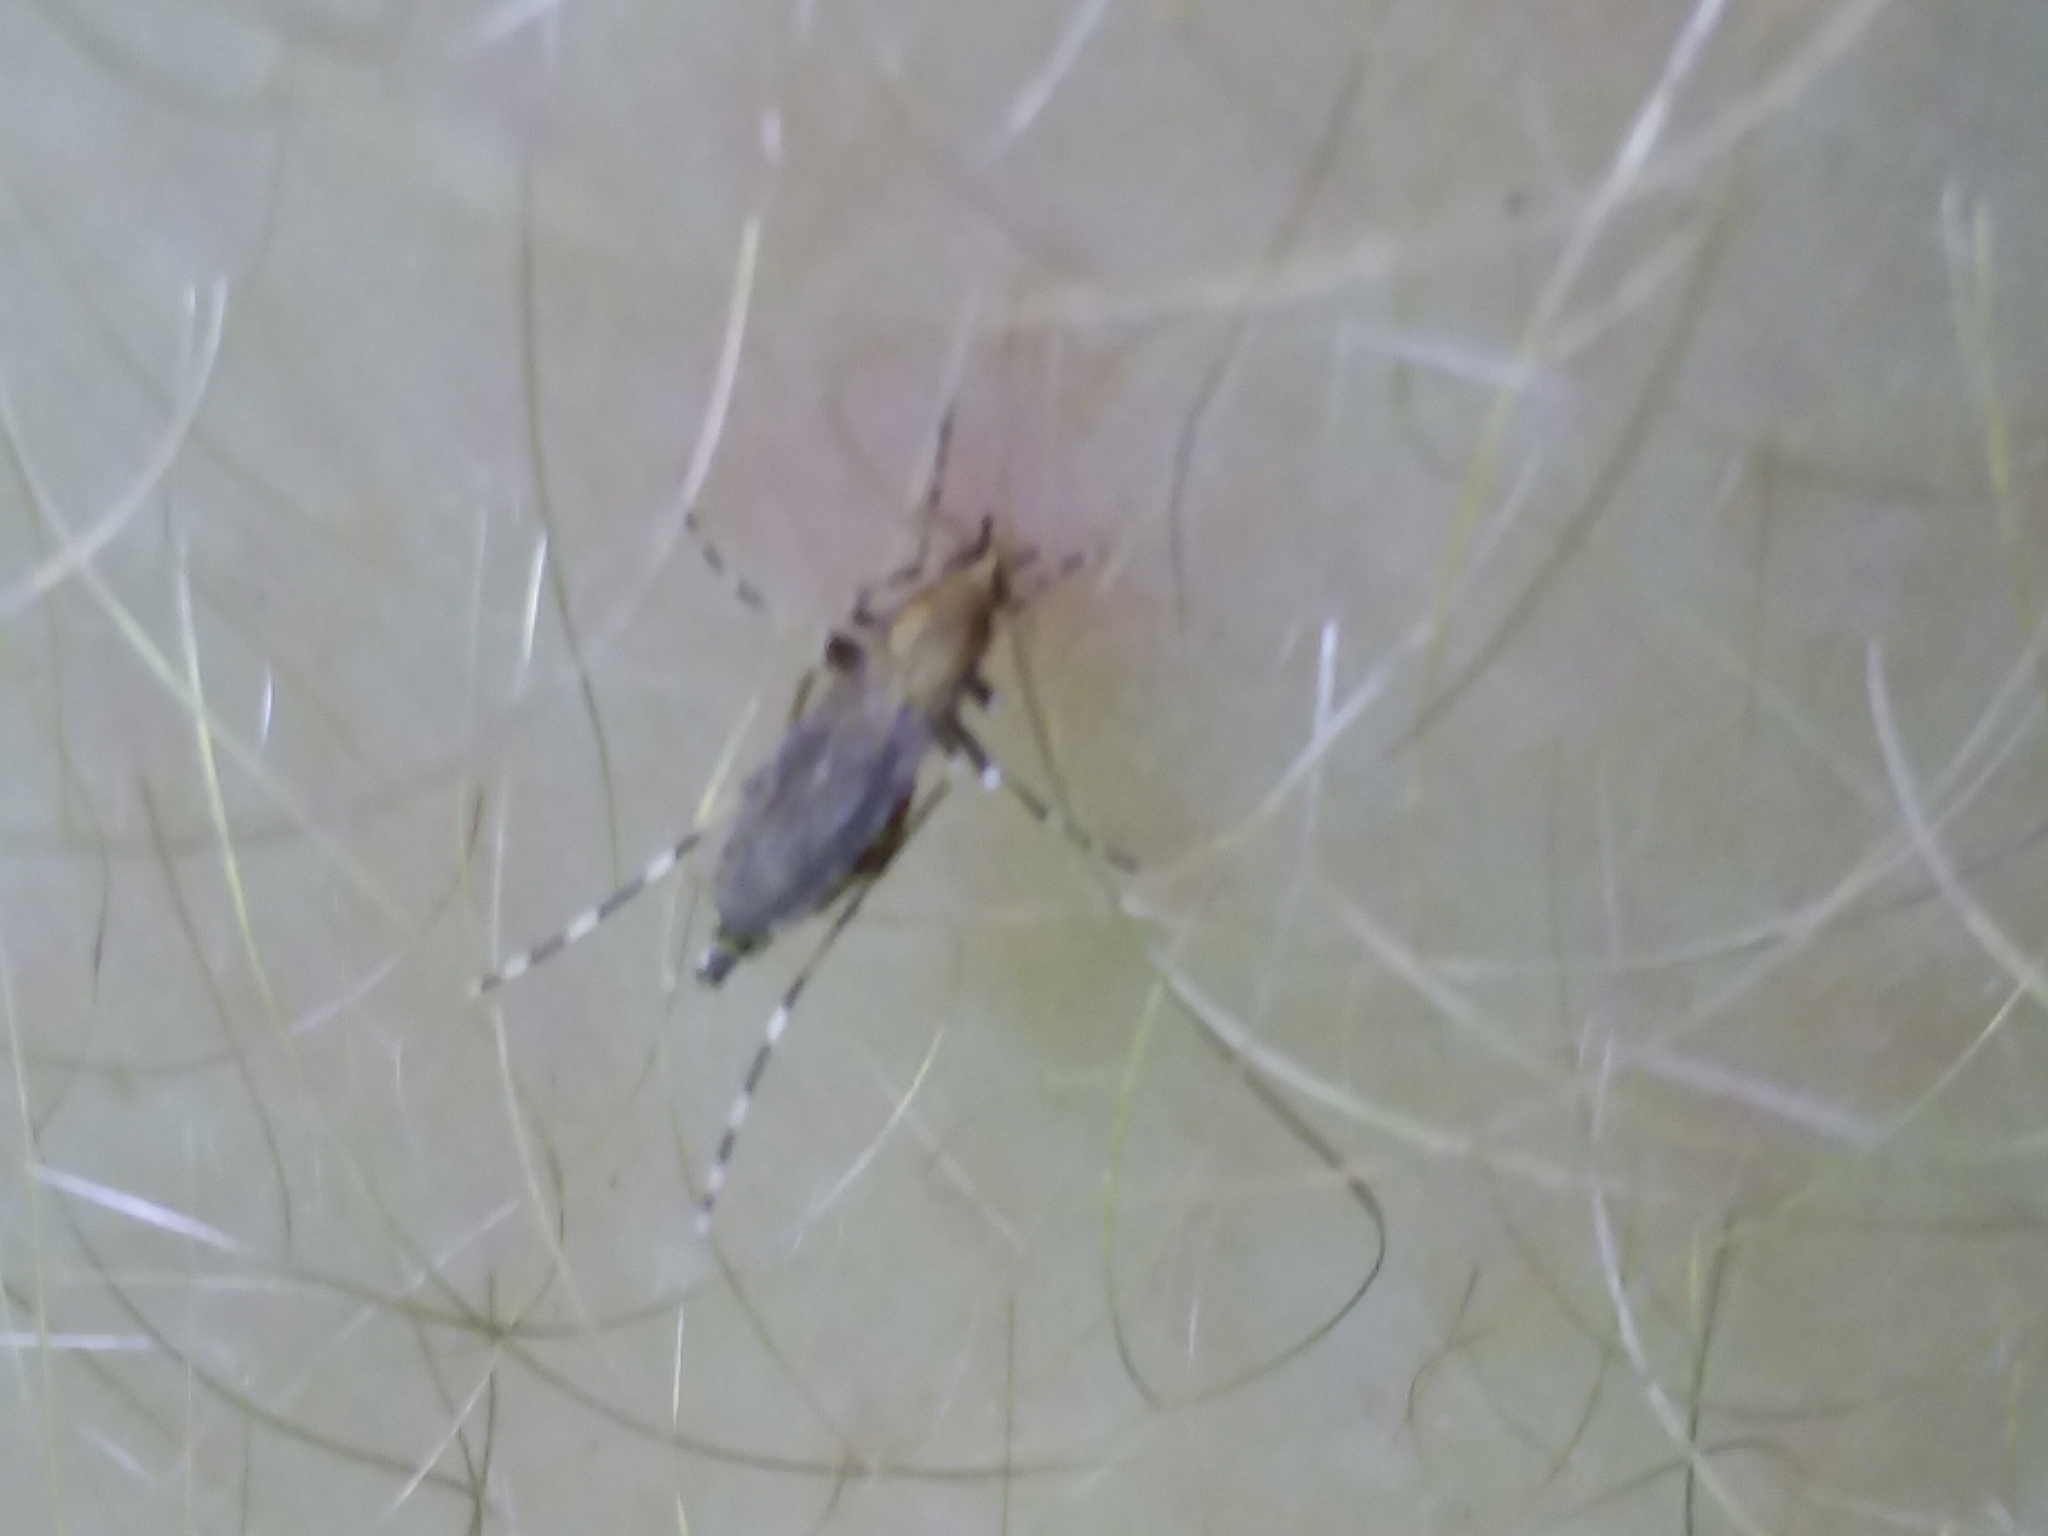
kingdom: Animalia
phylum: Arthropoda
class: Insecta
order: Diptera
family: Culicidae
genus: Aedes
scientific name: Aedes sollicitans
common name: Saltmarsh mosquito
